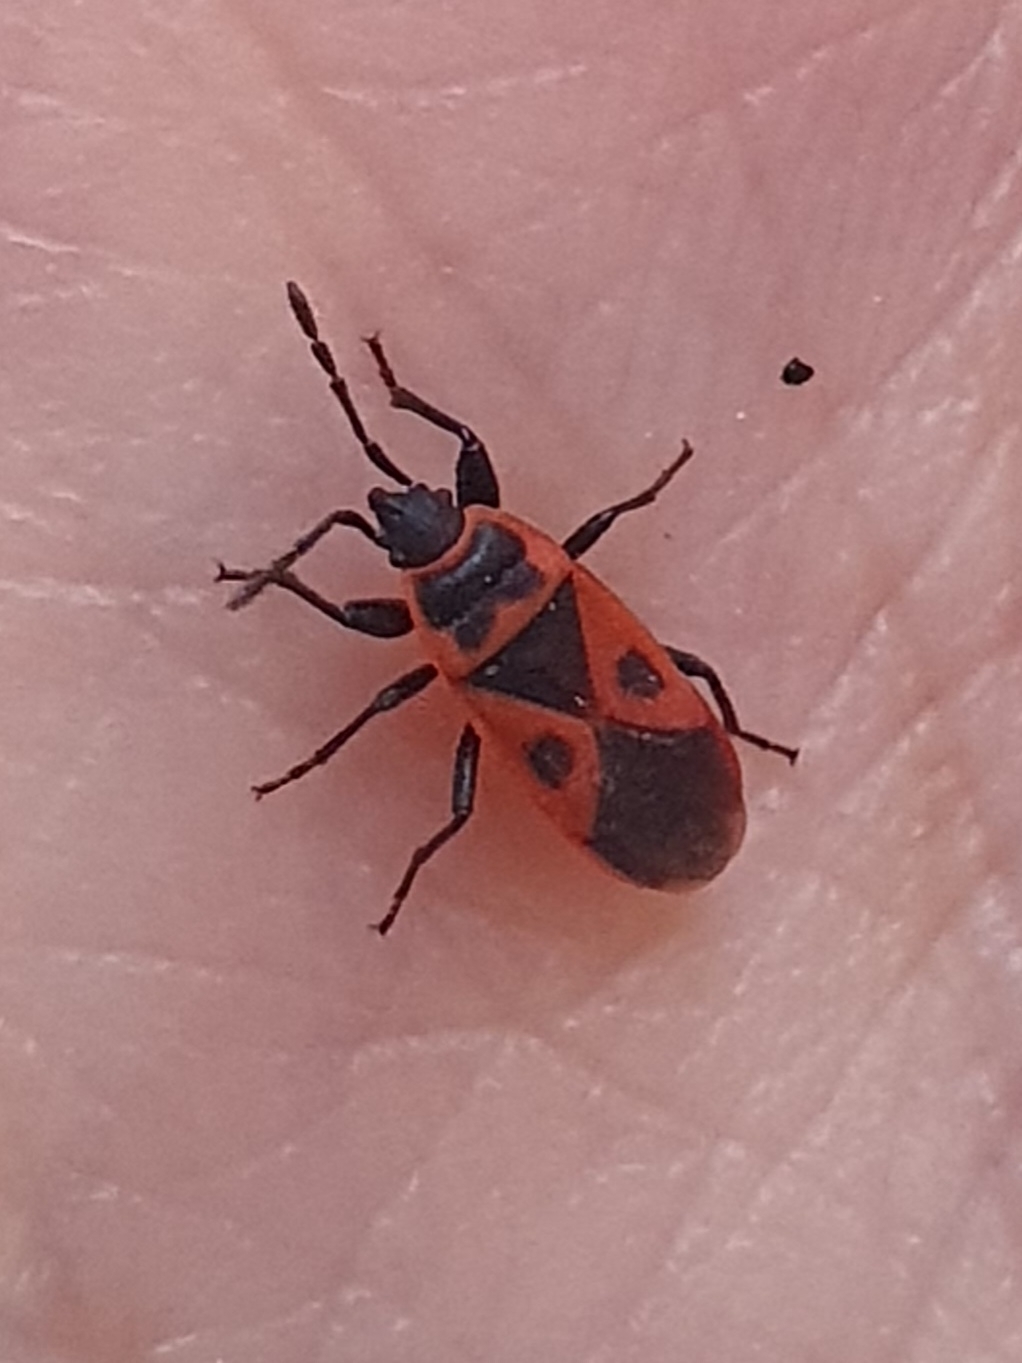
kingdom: Animalia
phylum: Arthropoda
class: Insecta
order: Hemiptera
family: Pyrrhocoridae
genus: Scantius
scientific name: Scantius aegyptius
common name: Red bug
